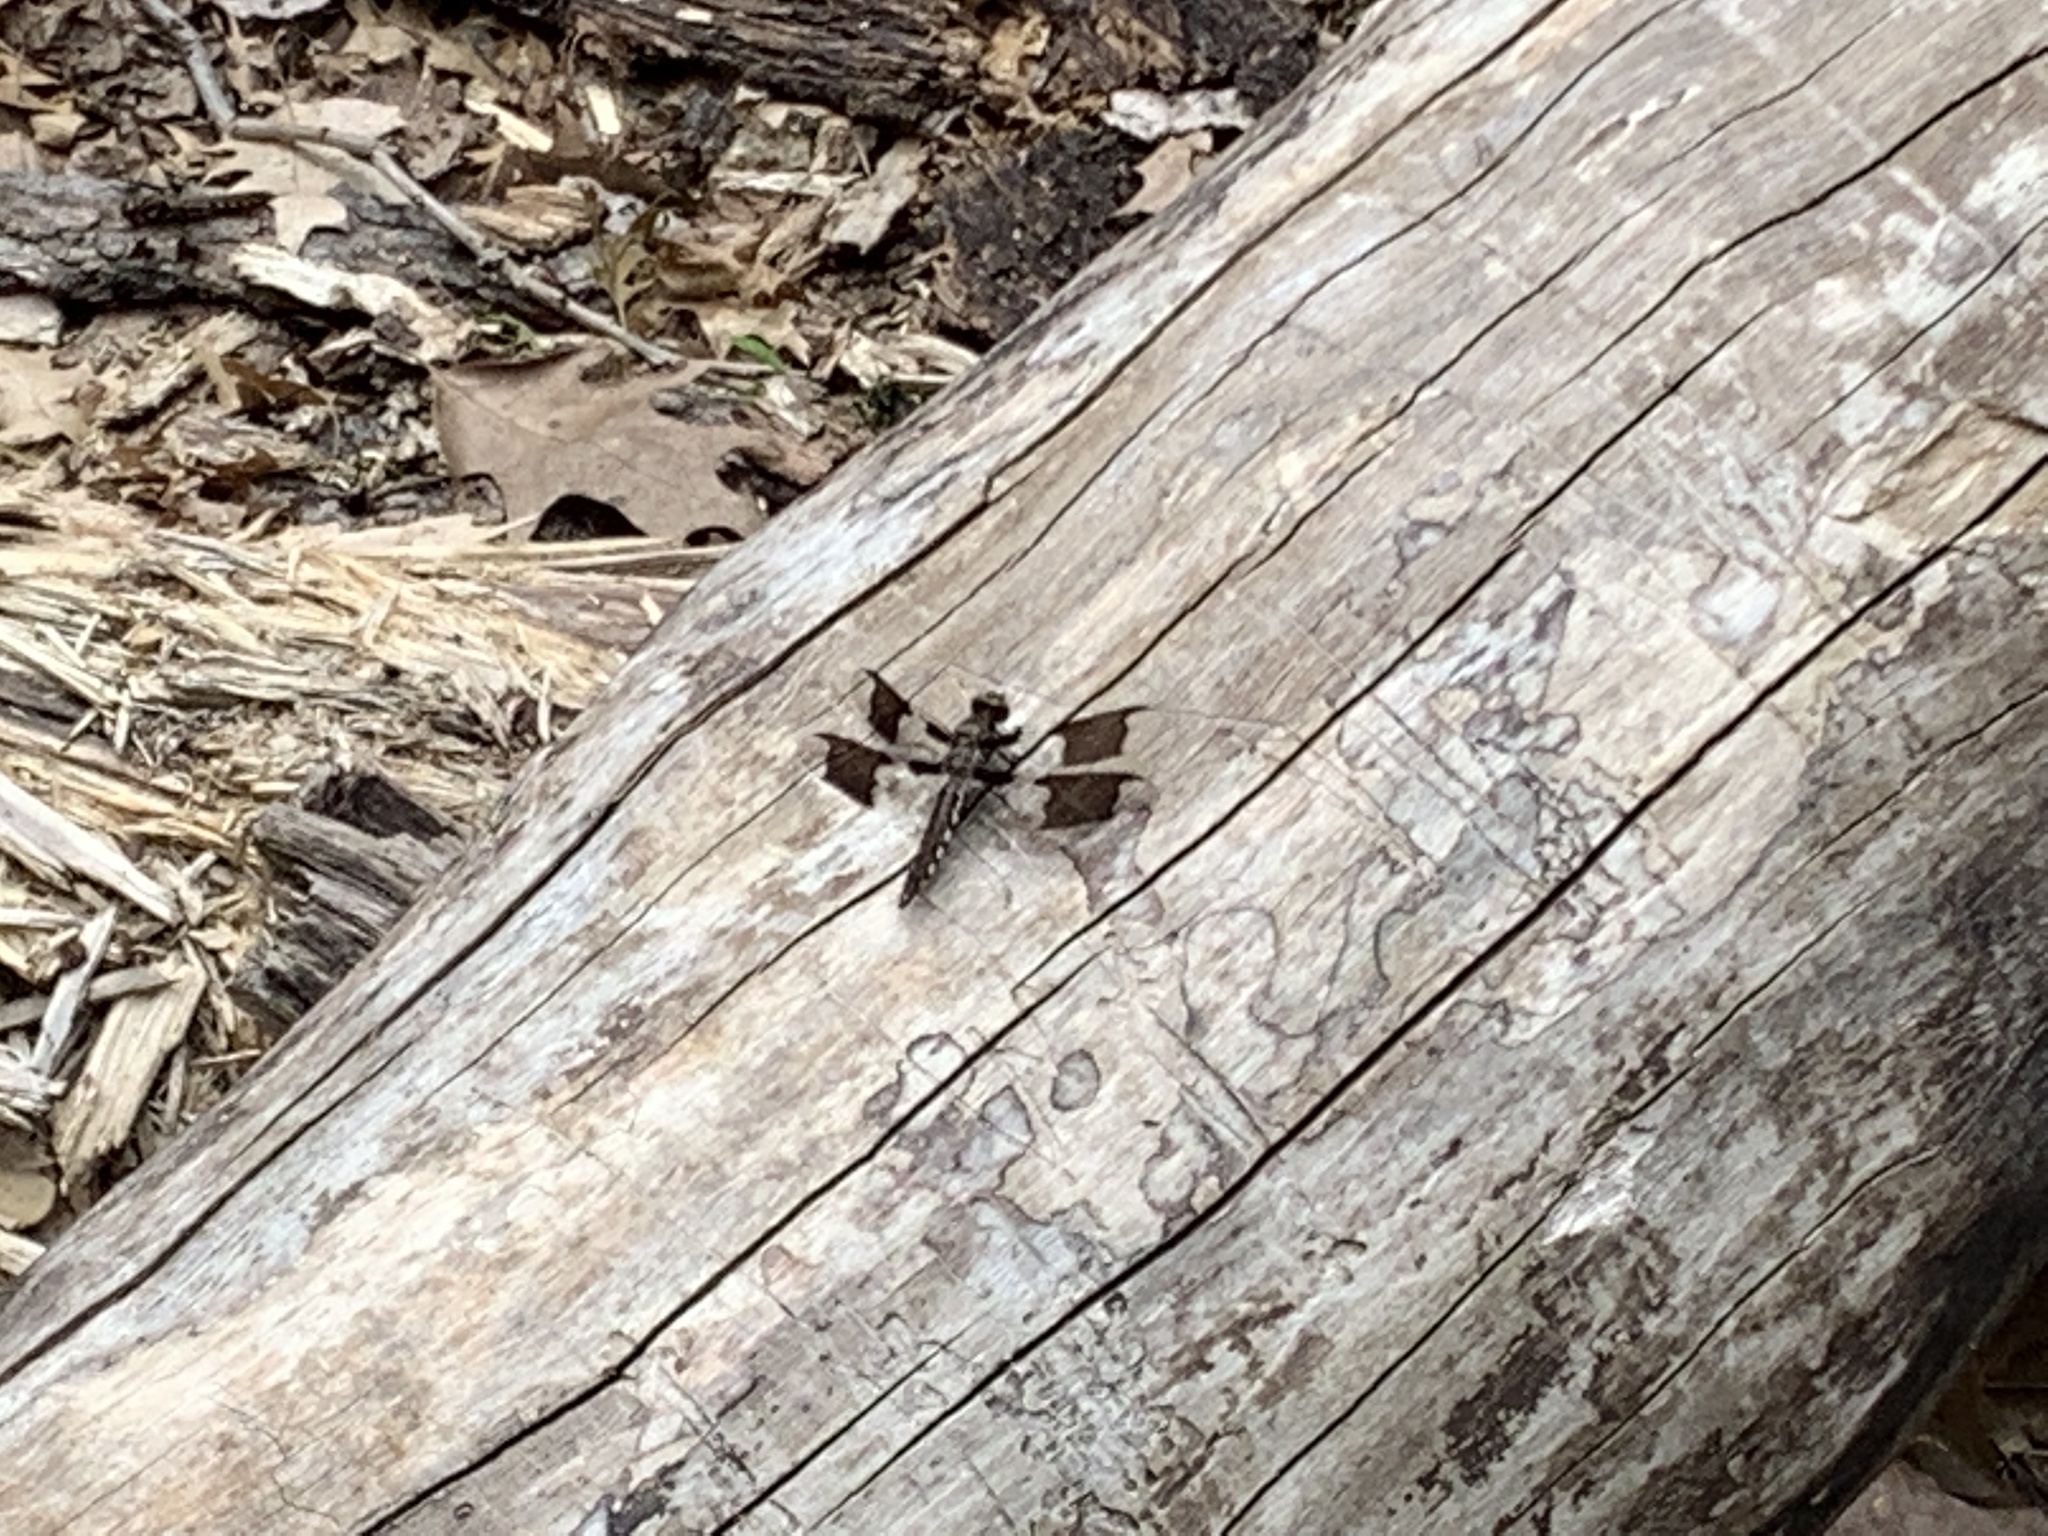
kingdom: Animalia
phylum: Arthropoda
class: Insecta
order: Odonata
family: Libellulidae
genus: Plathemis
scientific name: Plathemis lydia
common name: Common whitetail
